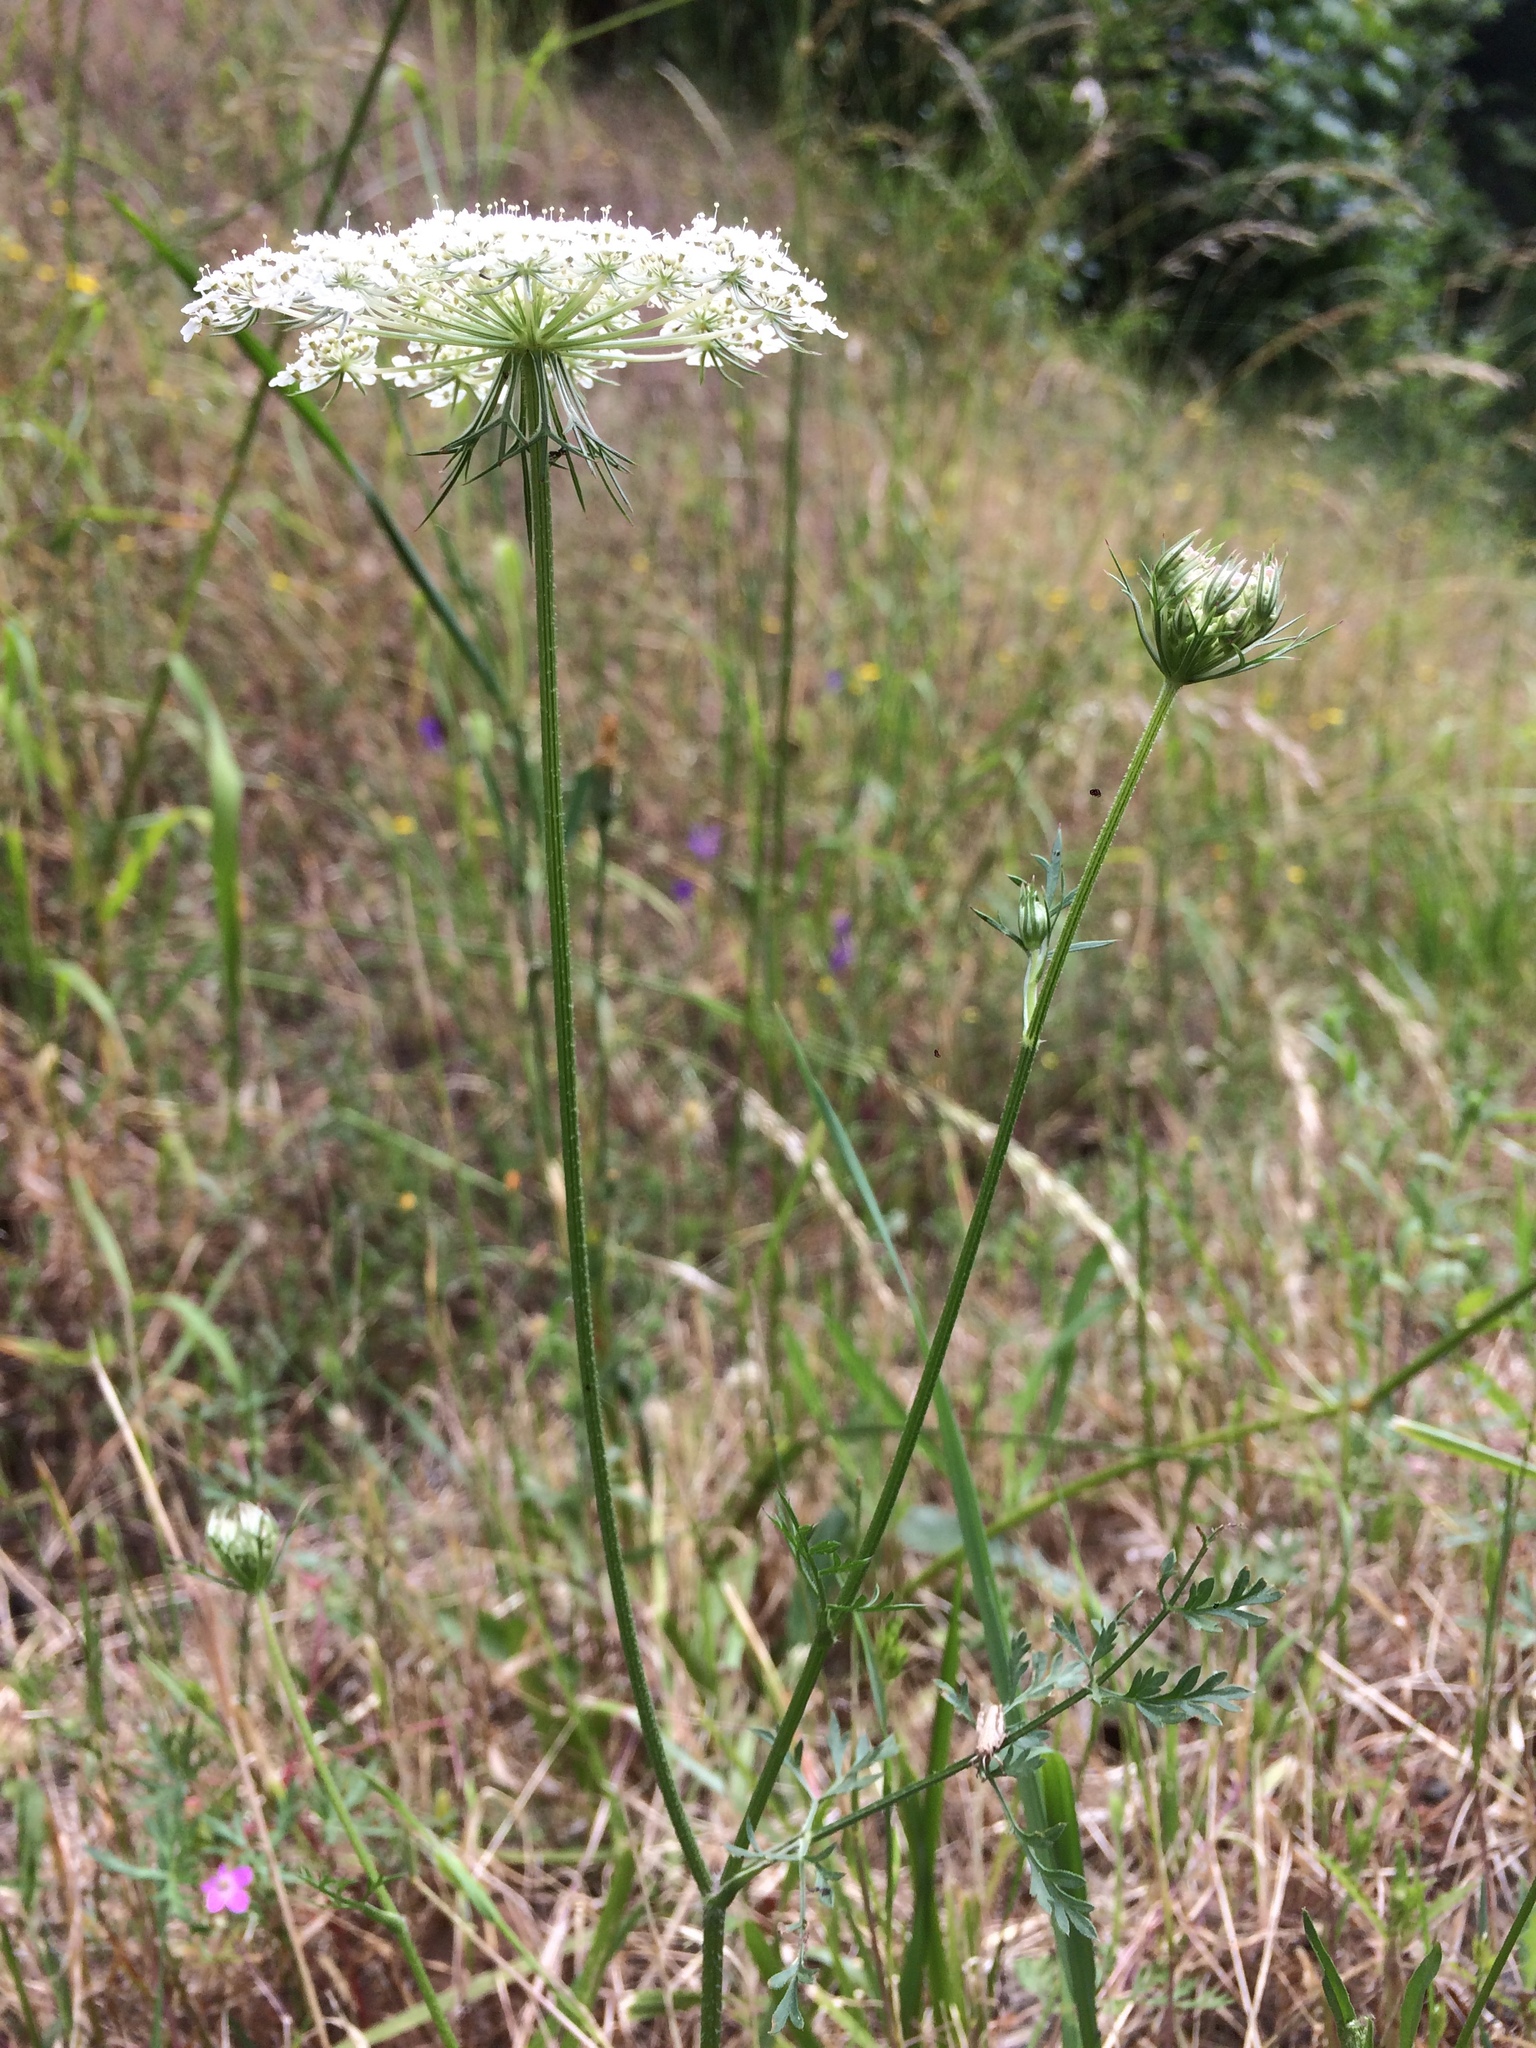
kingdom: Plantae
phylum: Tracheophyta
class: Magnoliopsida
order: Apiales
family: Apiaceae
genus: Daucus
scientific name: Daucus carota
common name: Wild carrot
